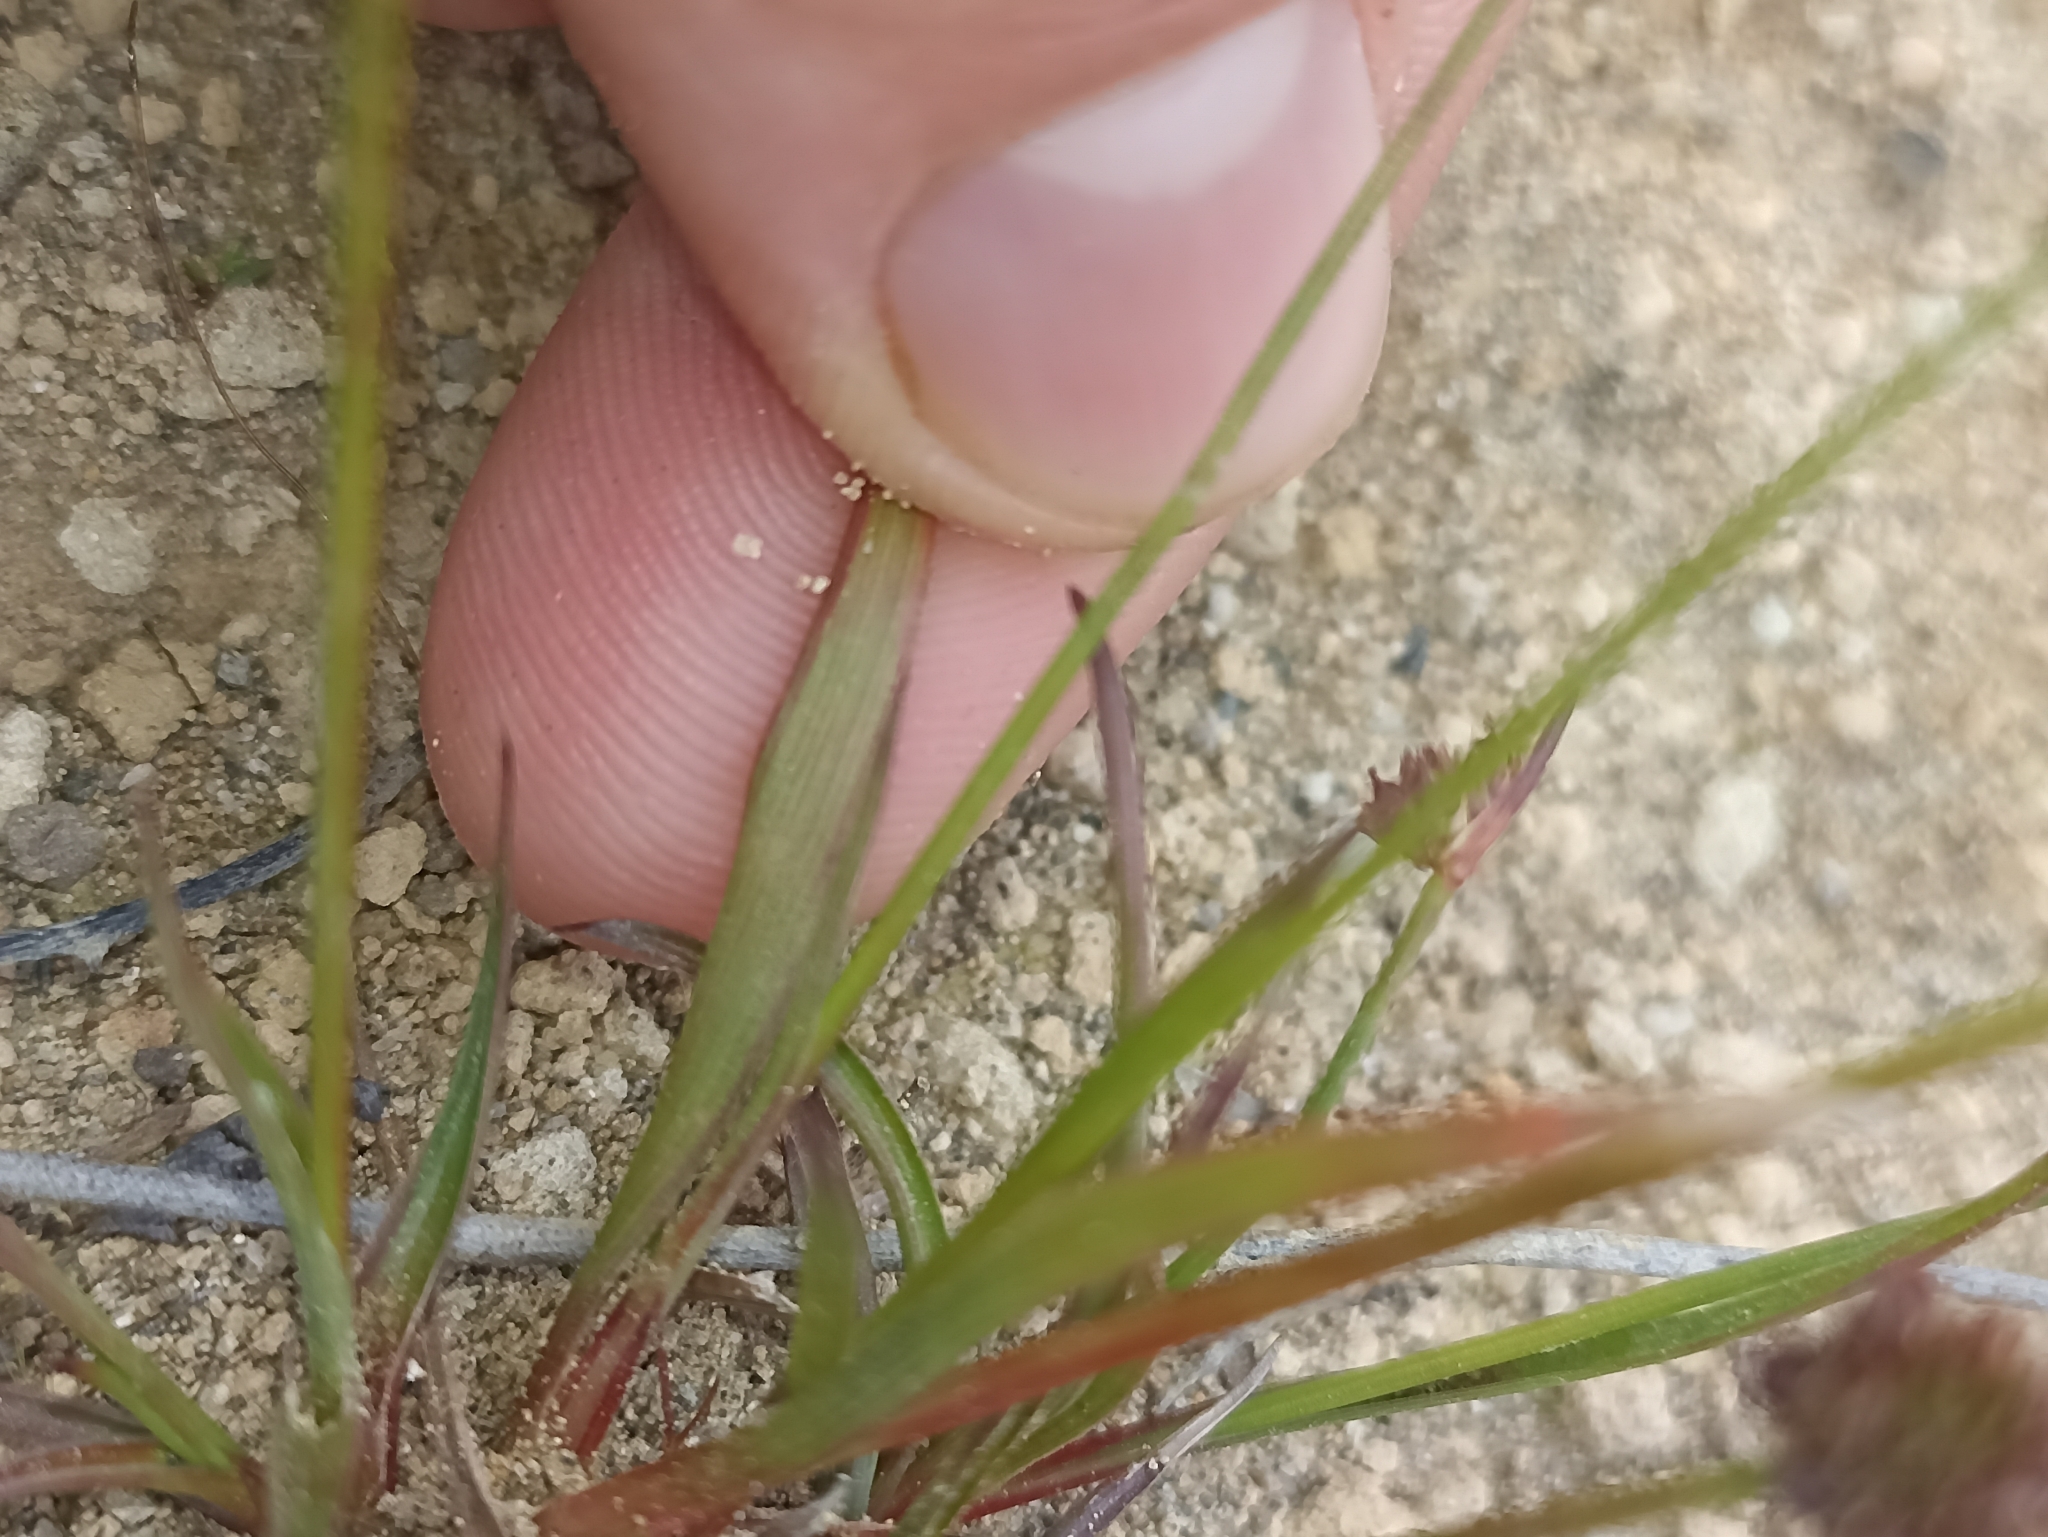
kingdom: Plantae
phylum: Tracheophyta
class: Liliopsida
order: Poales
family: Juncaceae
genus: Juncus
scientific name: Juncus planifolius
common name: Broadleaf rush
